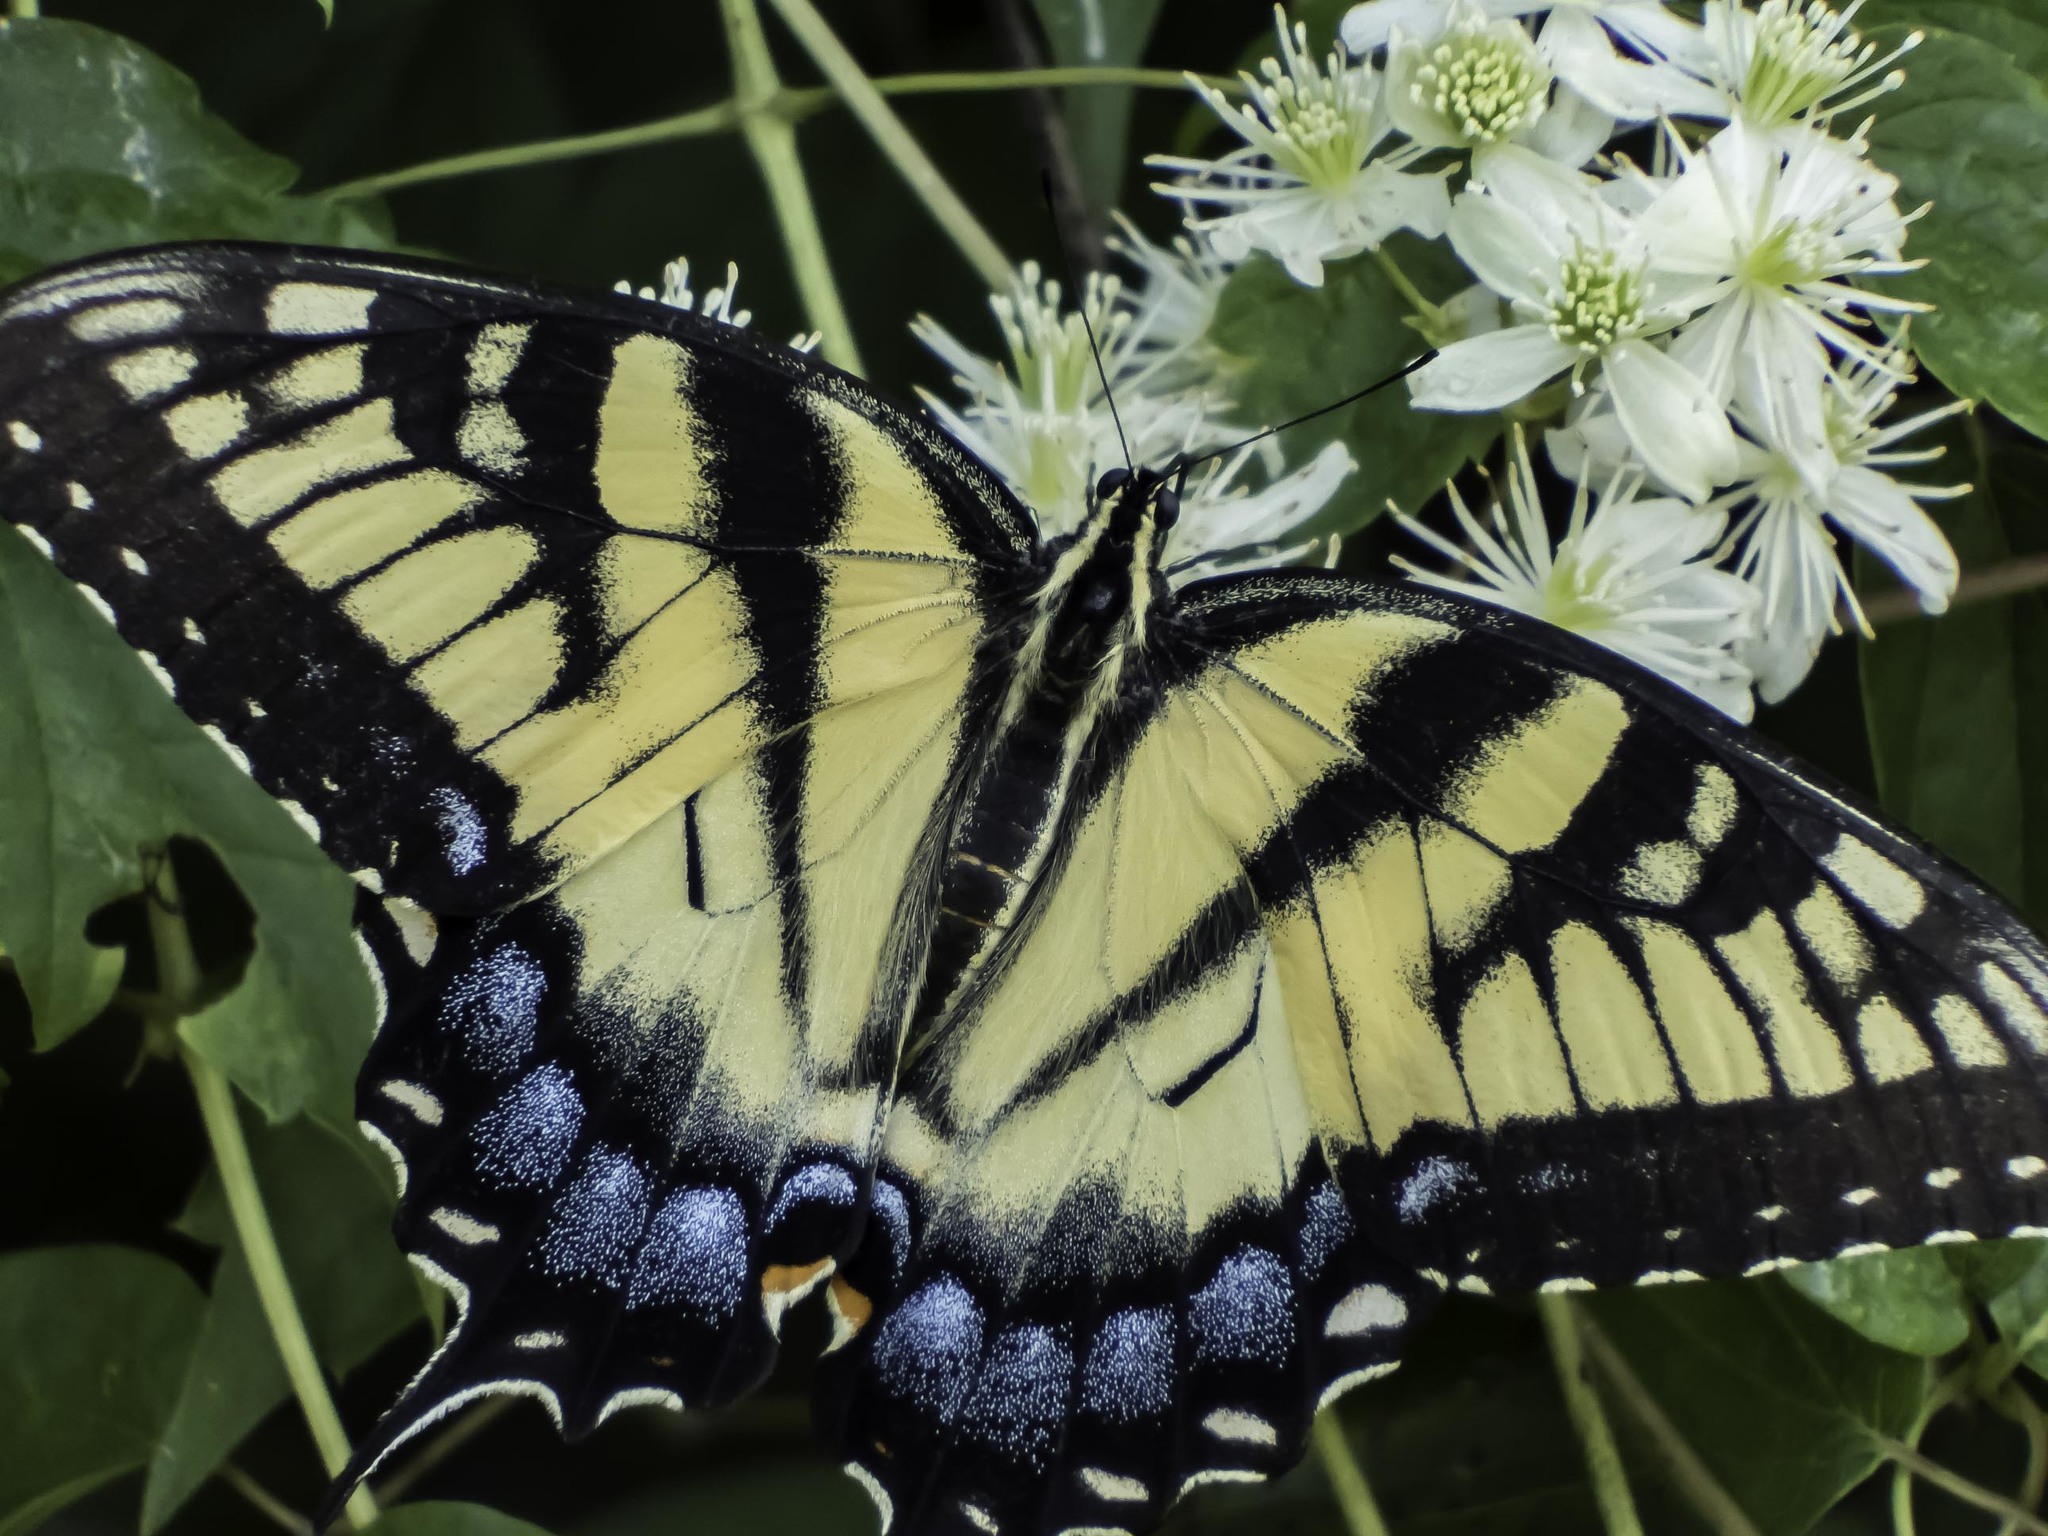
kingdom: Animalia
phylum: Arthropoda
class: Insecta
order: Lepidoptera
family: Papilionidae
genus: Papilio
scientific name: Papilio glaucus
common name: Tiger swallowtail
